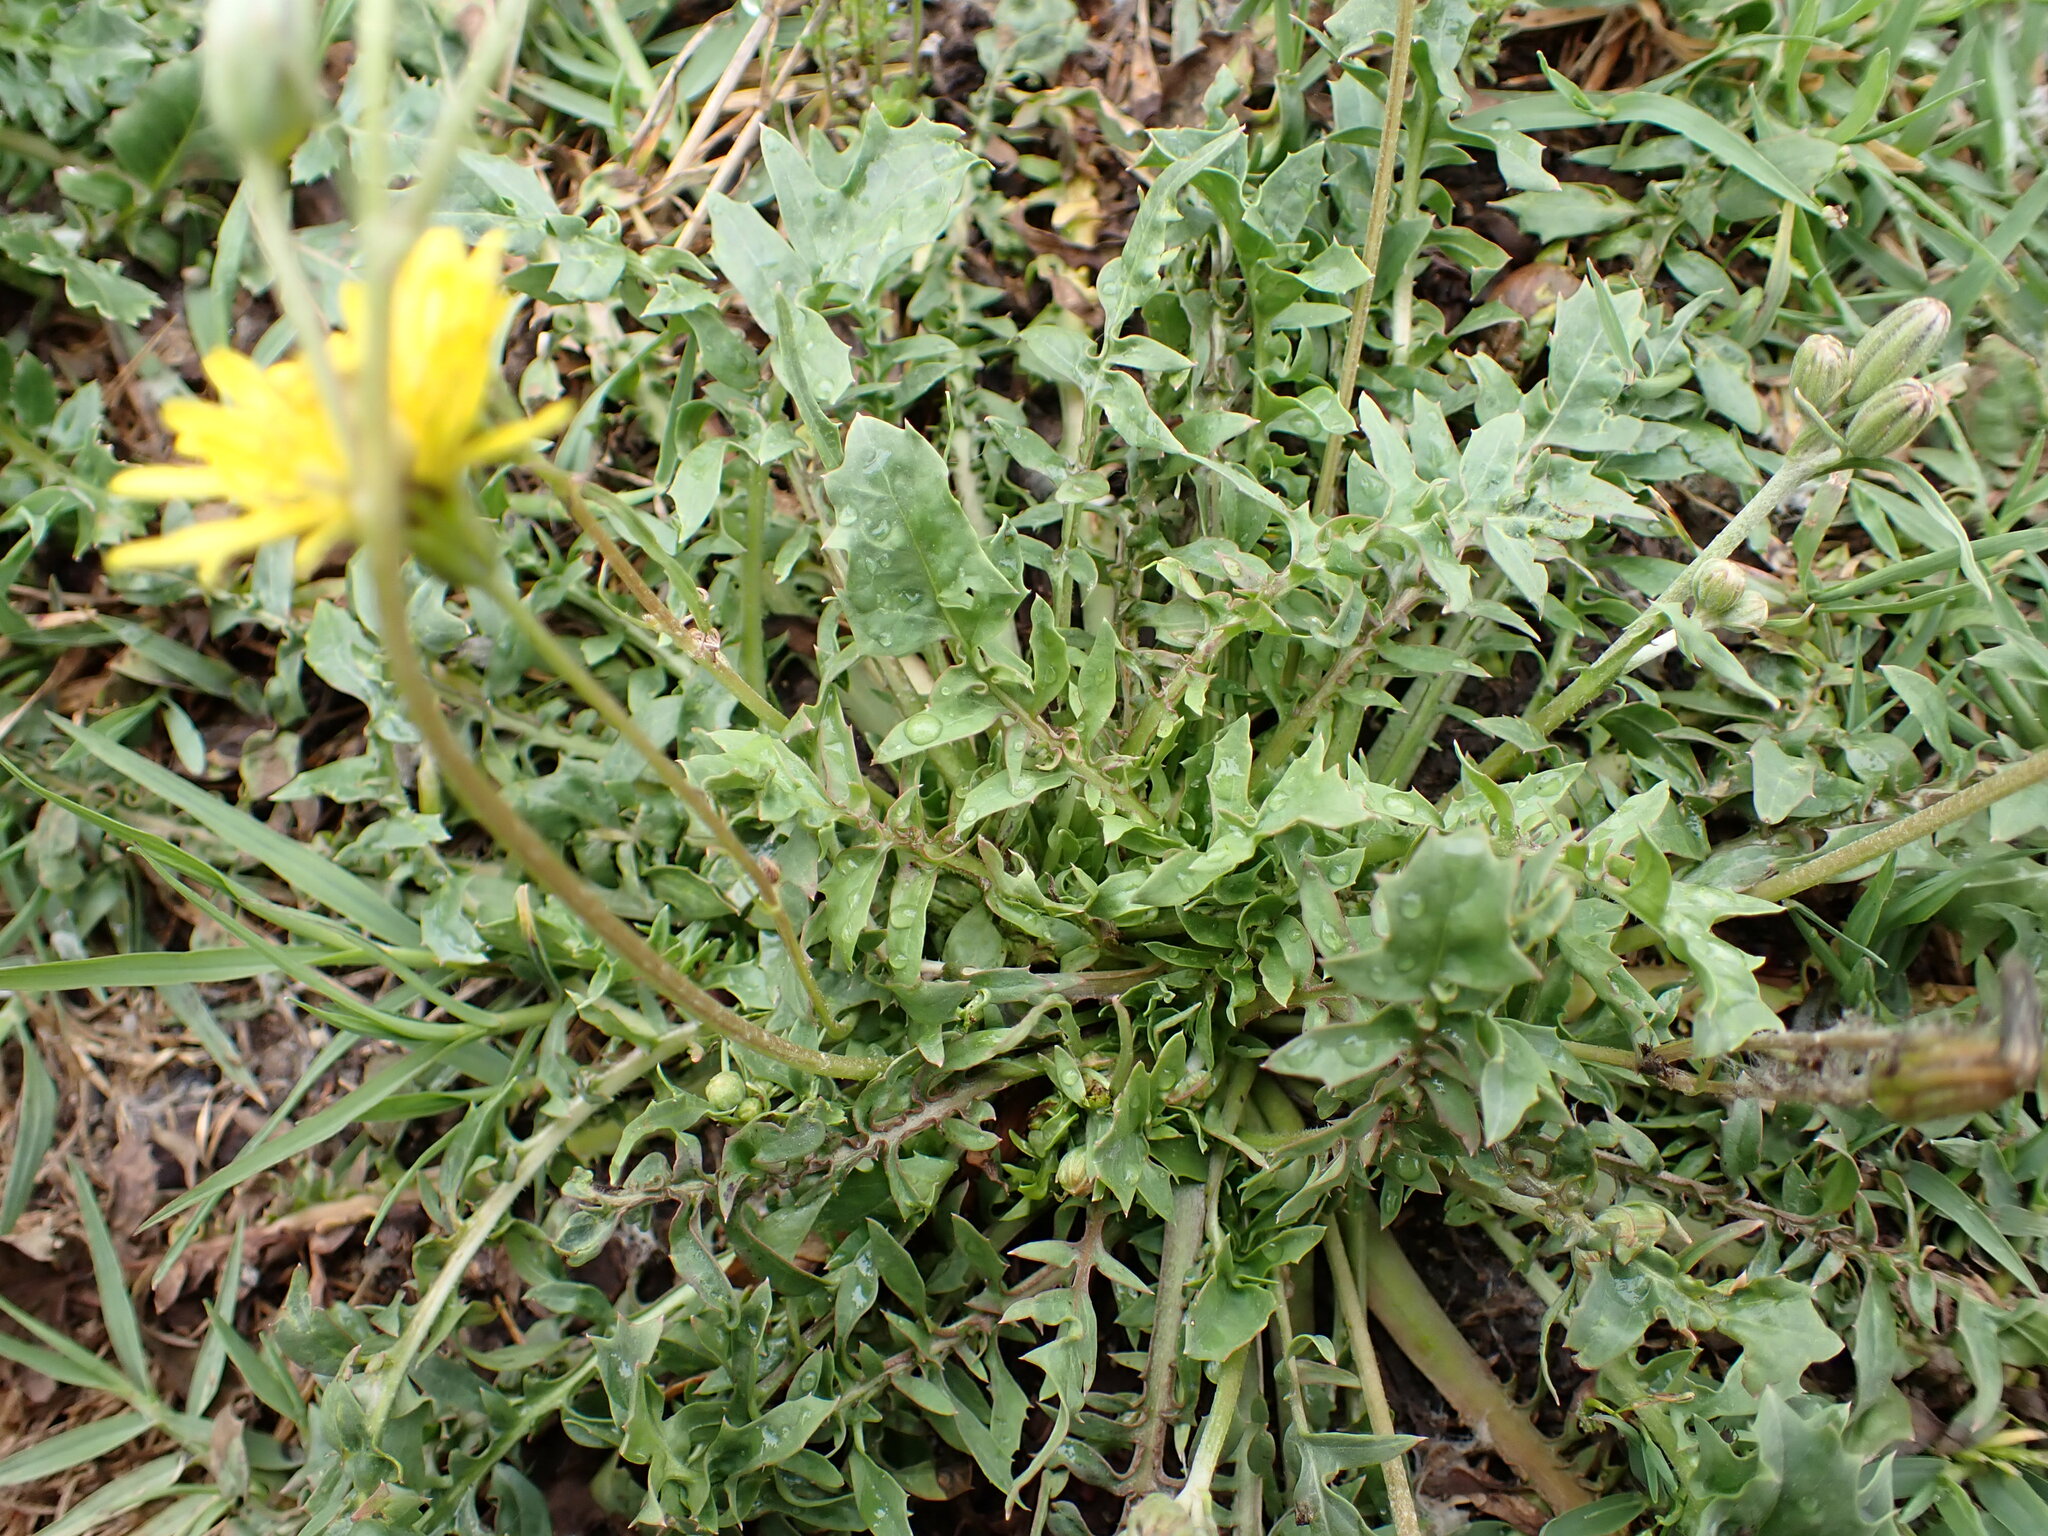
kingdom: Plantae
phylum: Tracheophyta
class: Magnoliopsida
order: Asterales
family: Asteraceae
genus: Crepis
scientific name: Crepis bursifolia
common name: Italian hawksbeard
